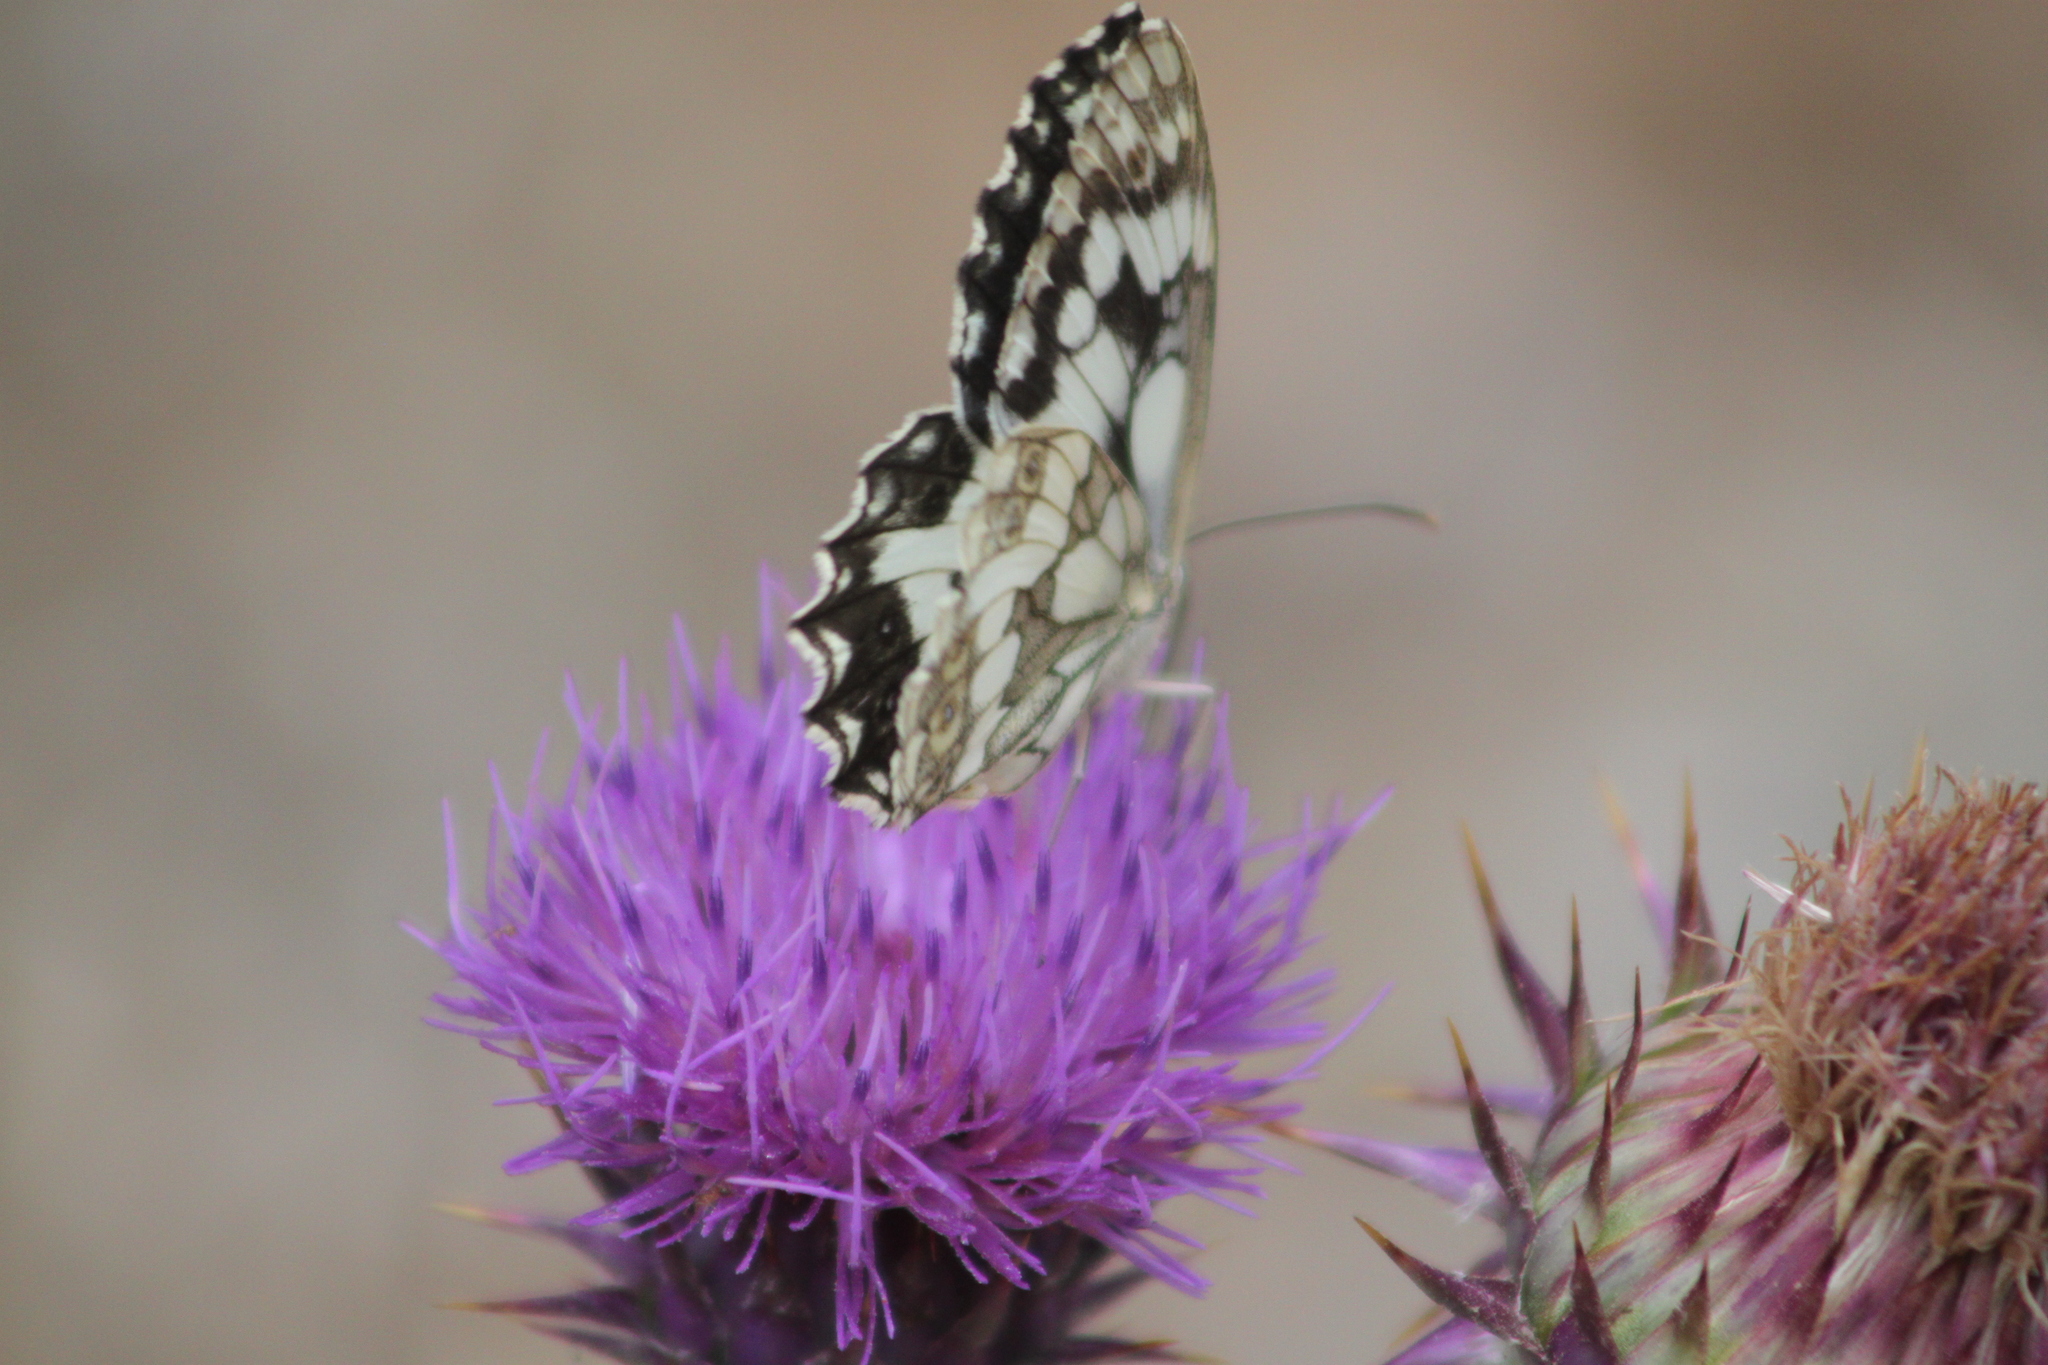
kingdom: Animalia
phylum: Arthropoda
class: Insecta
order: Lepidoptera
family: Nymphalidae
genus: Melanargia
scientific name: Melanargia galathea
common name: Marbled white
